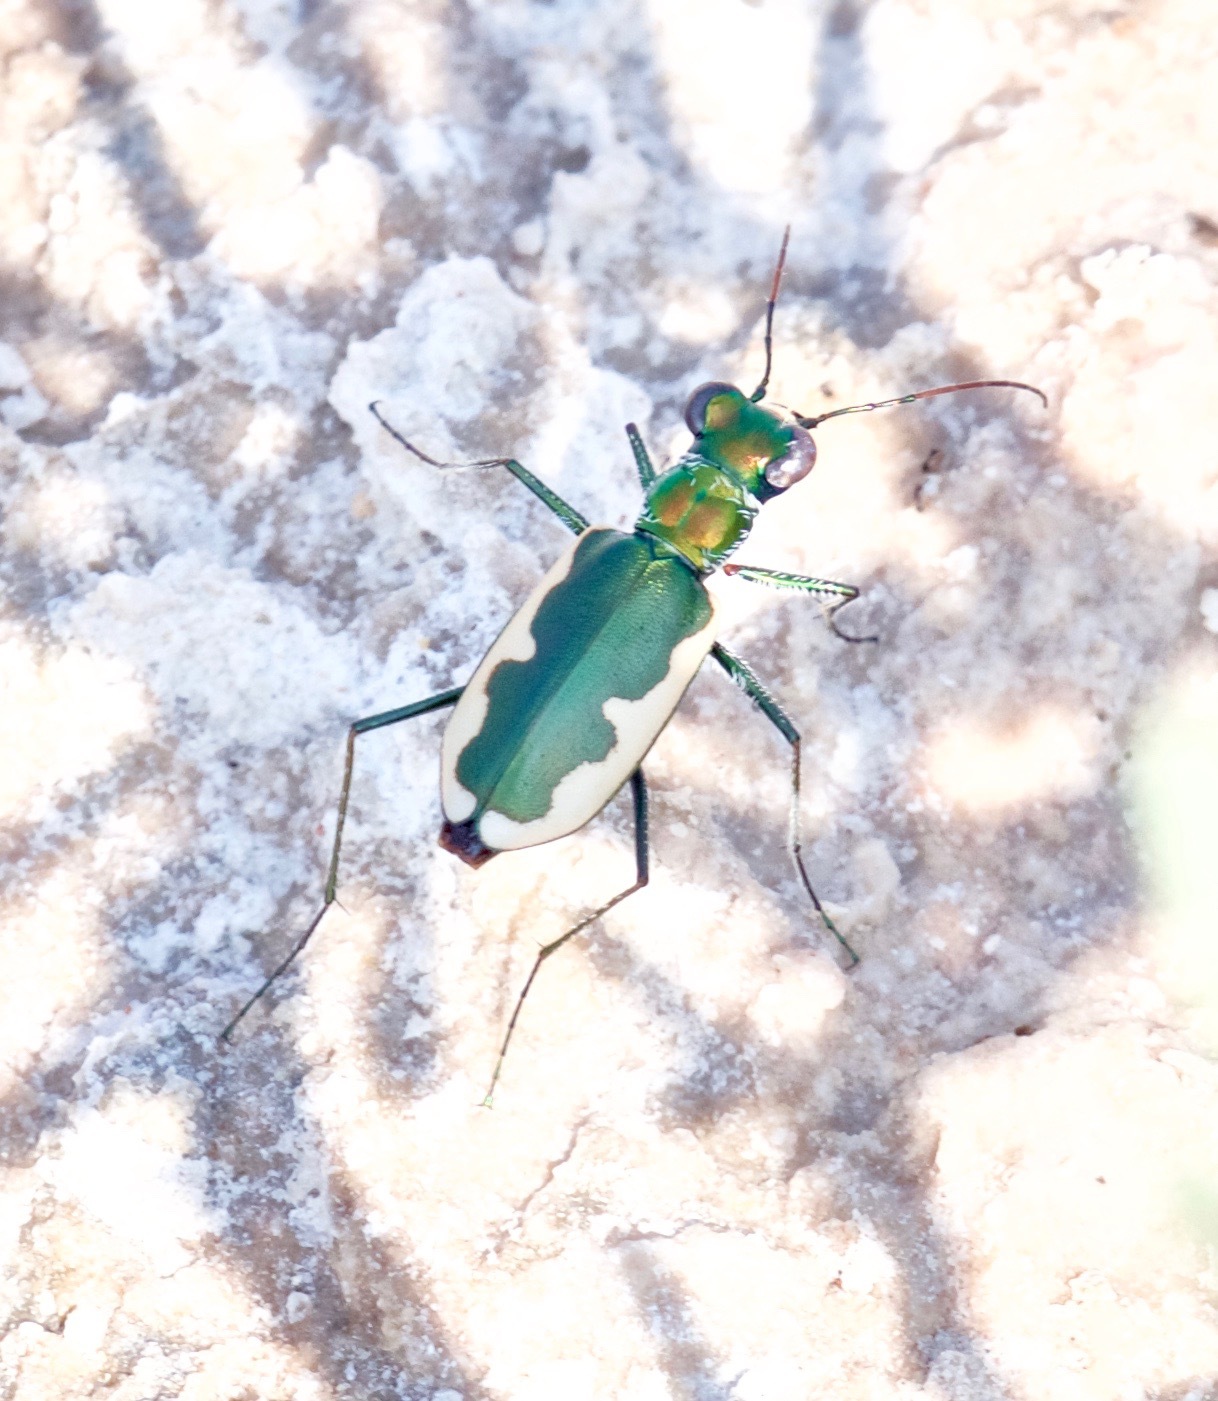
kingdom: Animalia
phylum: Arthropoda
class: Insecta
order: Coleoptera
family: Carabidae
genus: Eunota
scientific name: Eunota circumpicta
